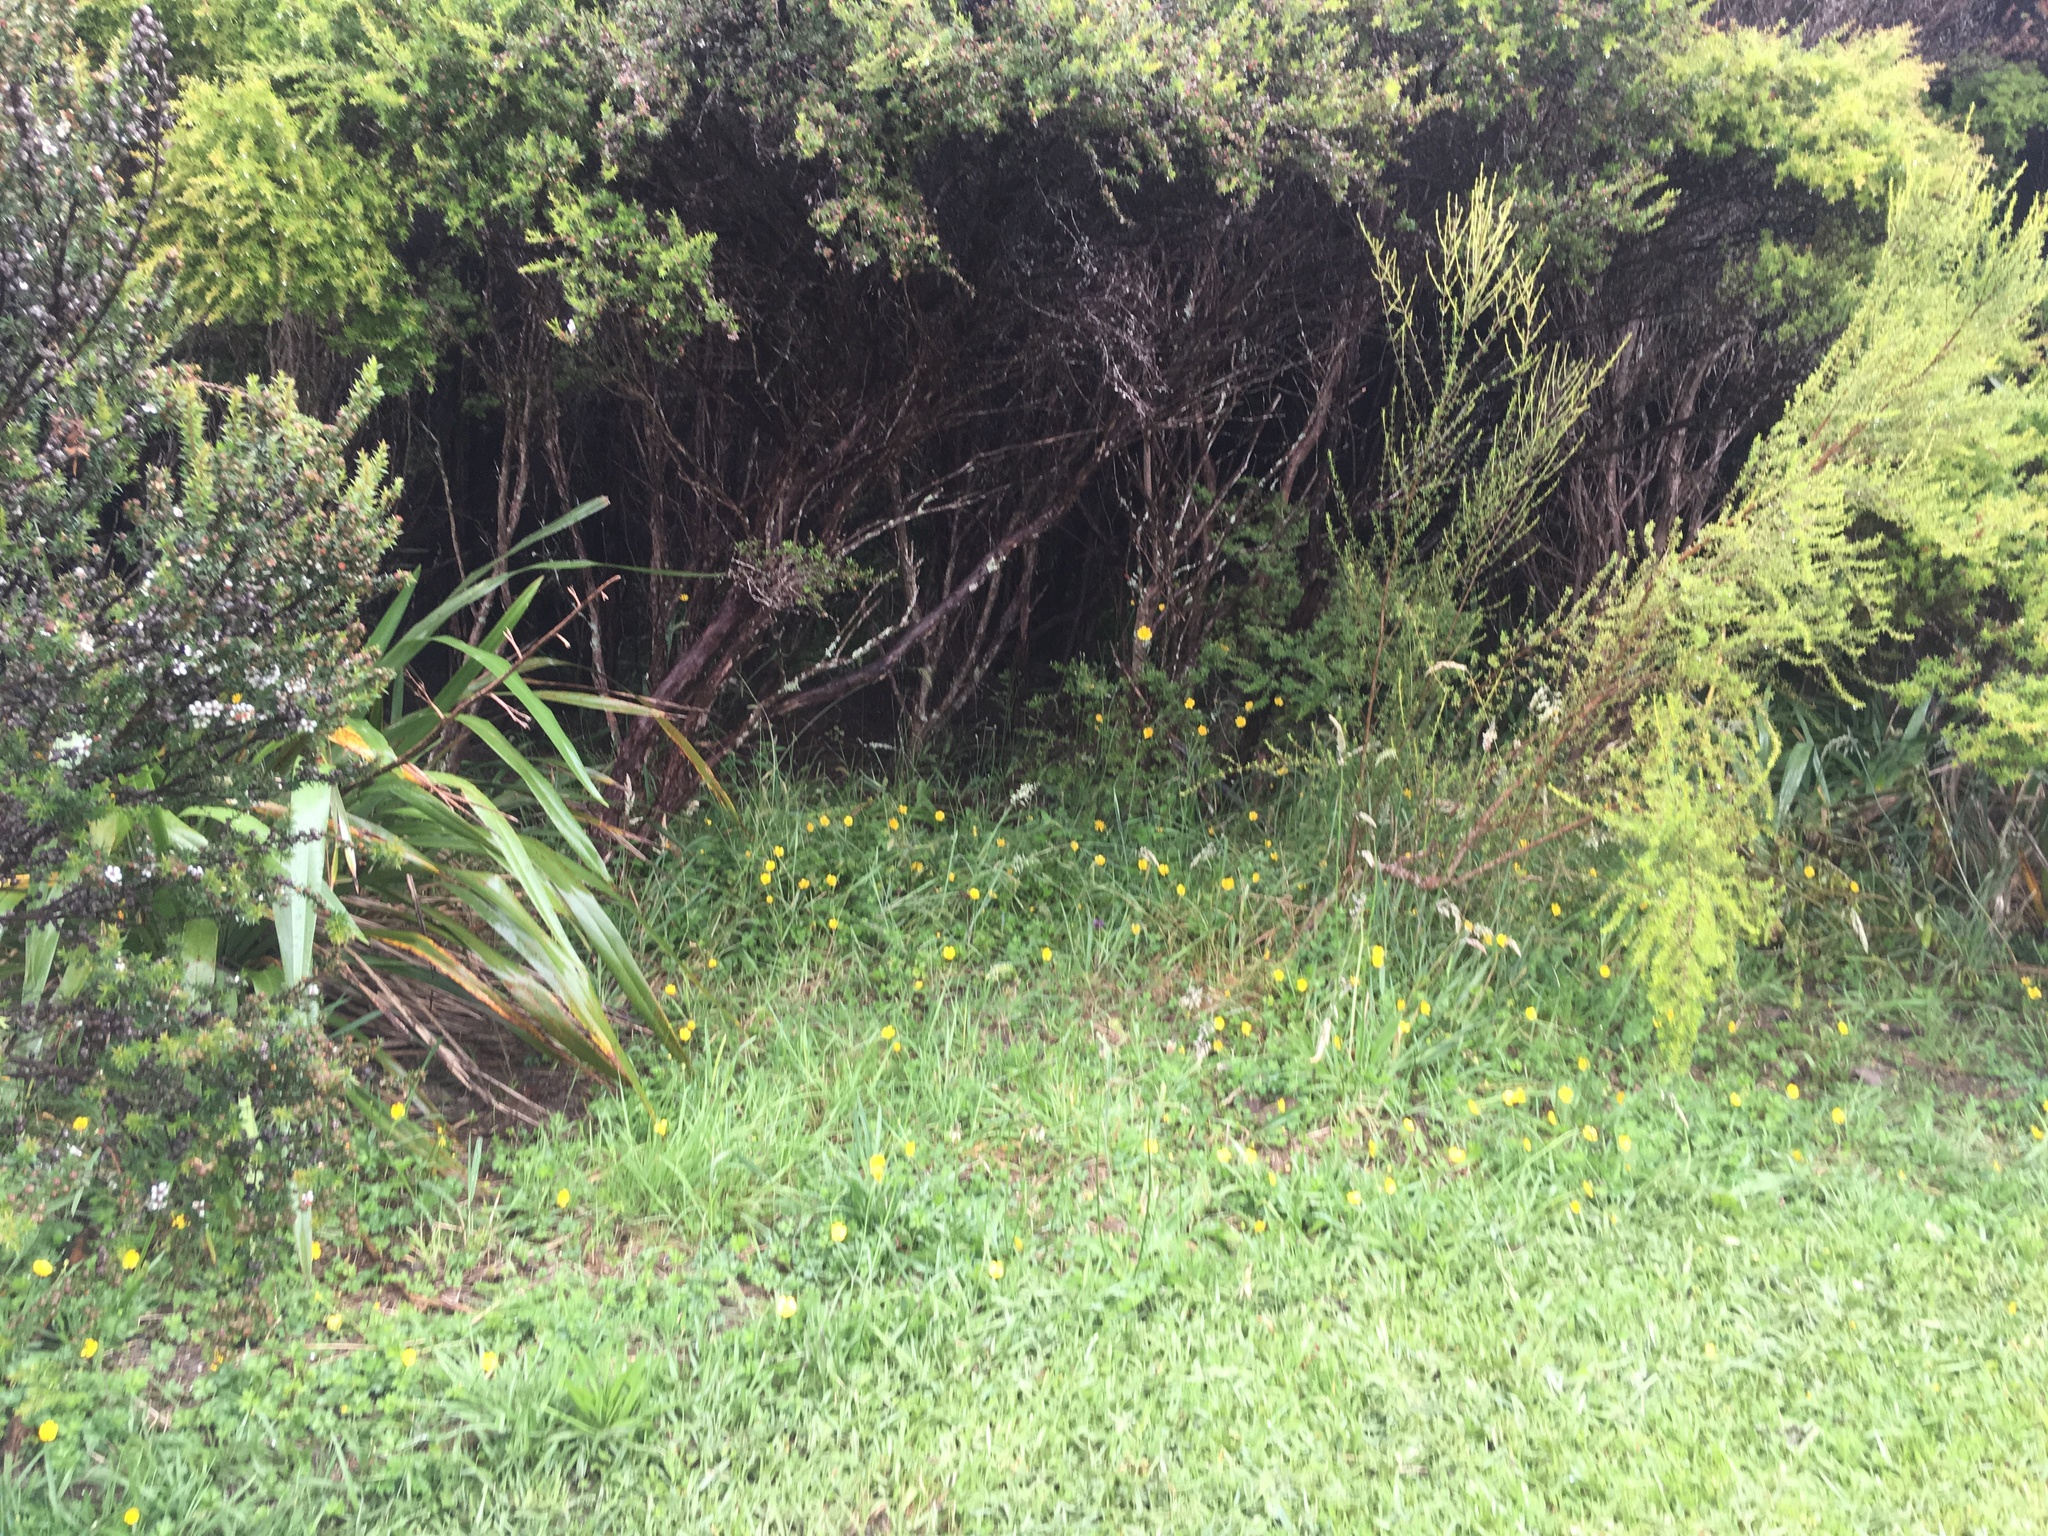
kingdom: Plantae
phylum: Tracheophyta
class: Magnoliopsida
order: Myrtales
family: Myrtaceae
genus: Leptospermum
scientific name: Leptospermum scoparium
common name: Broom tea-tree
